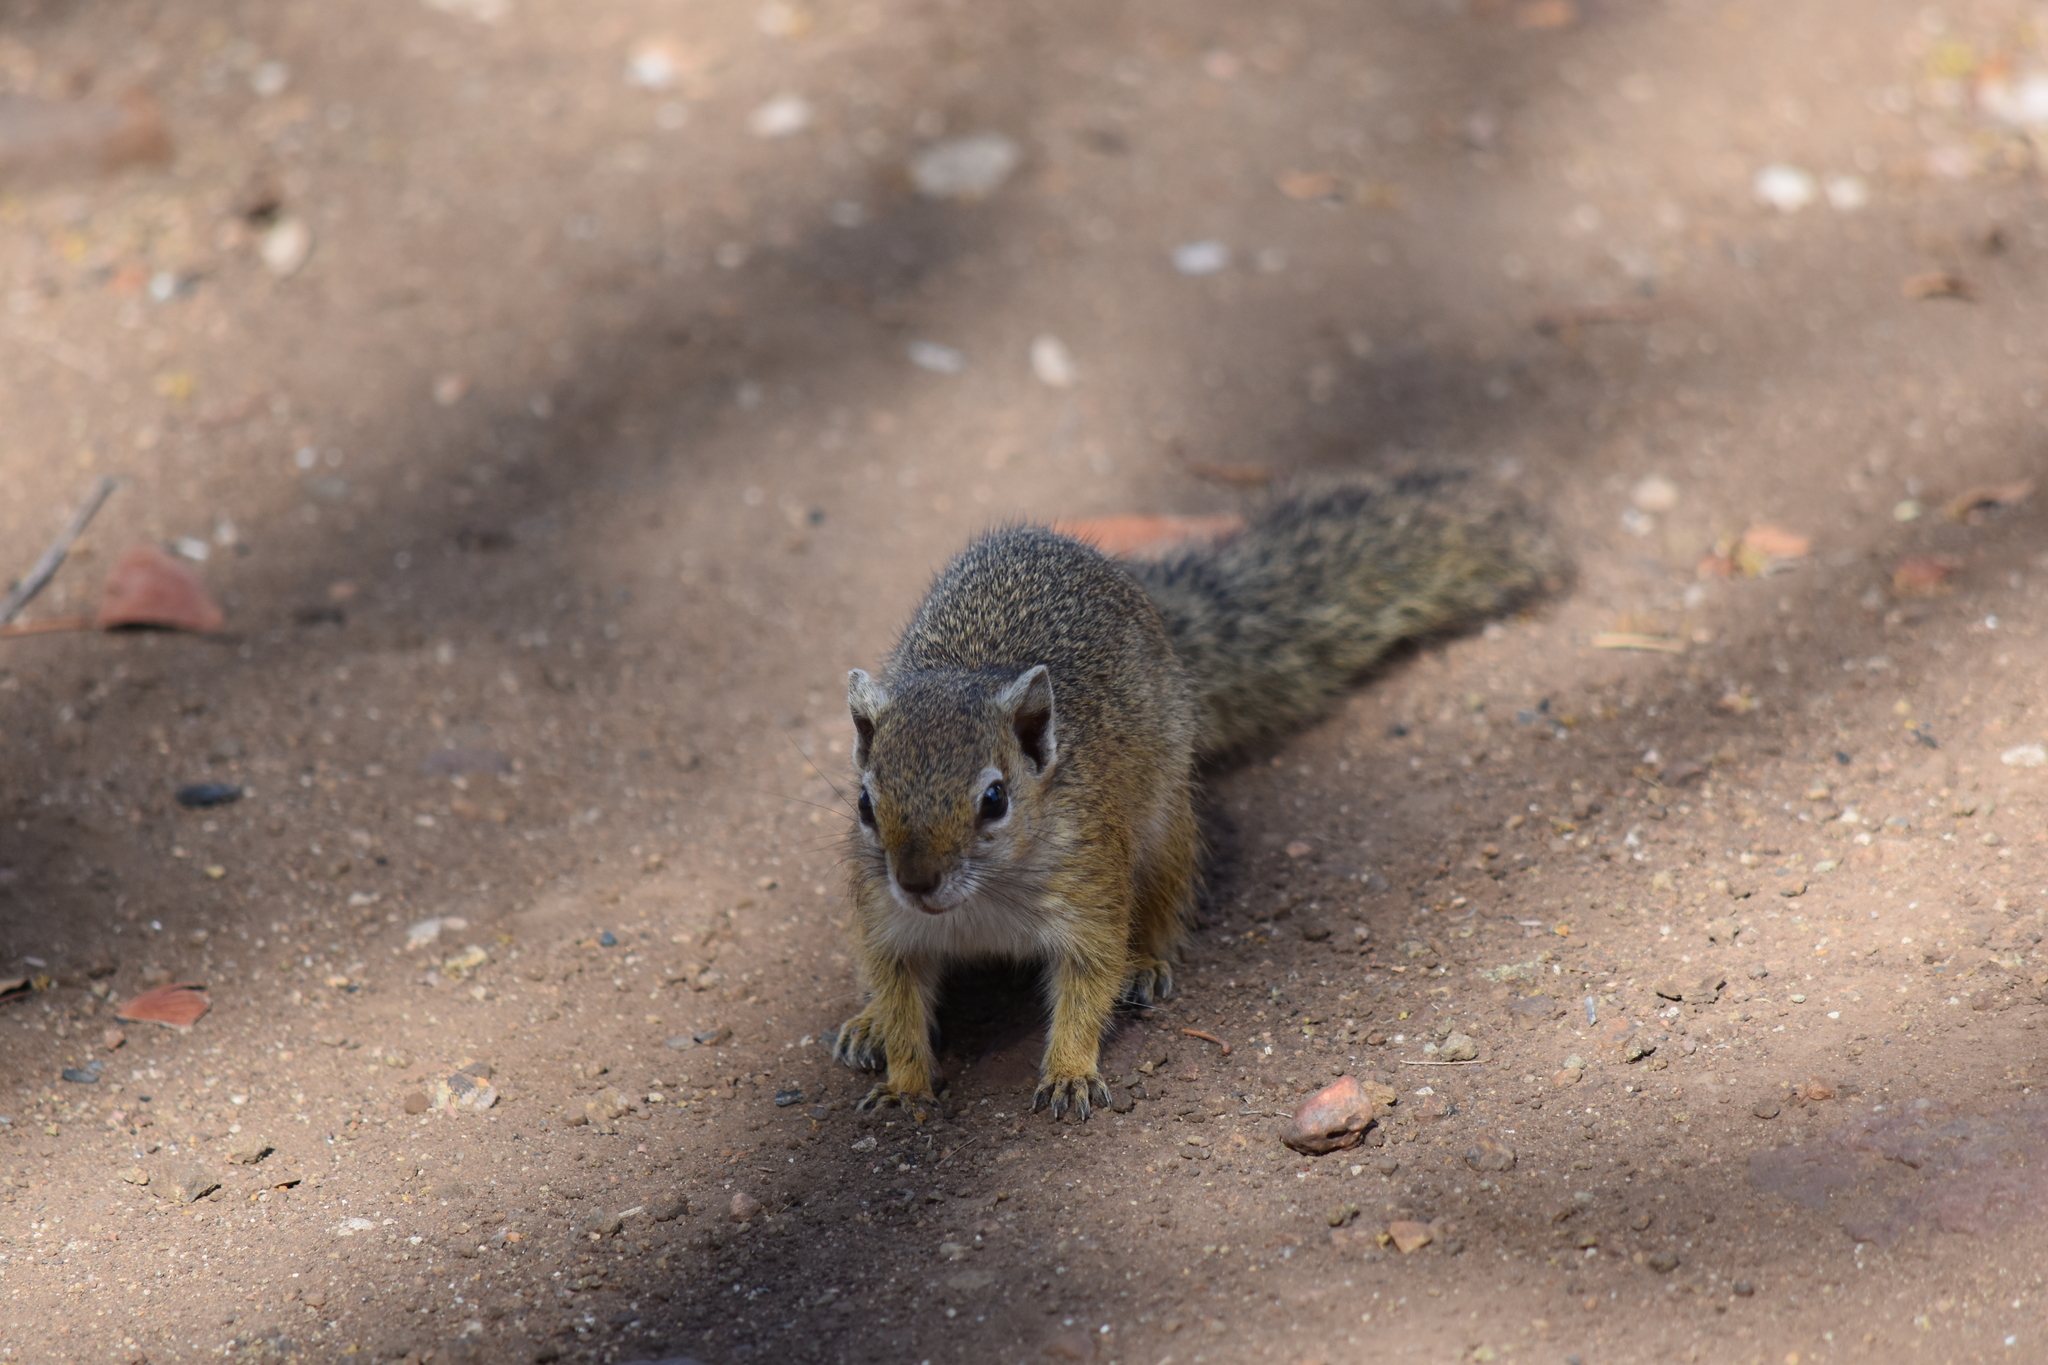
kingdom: Animalia
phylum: Chordata
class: Mammalia
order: Rodentia
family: Sciuridae
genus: Paraxerus
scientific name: Paraxerus cepapi
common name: Smith's bush squirrel
